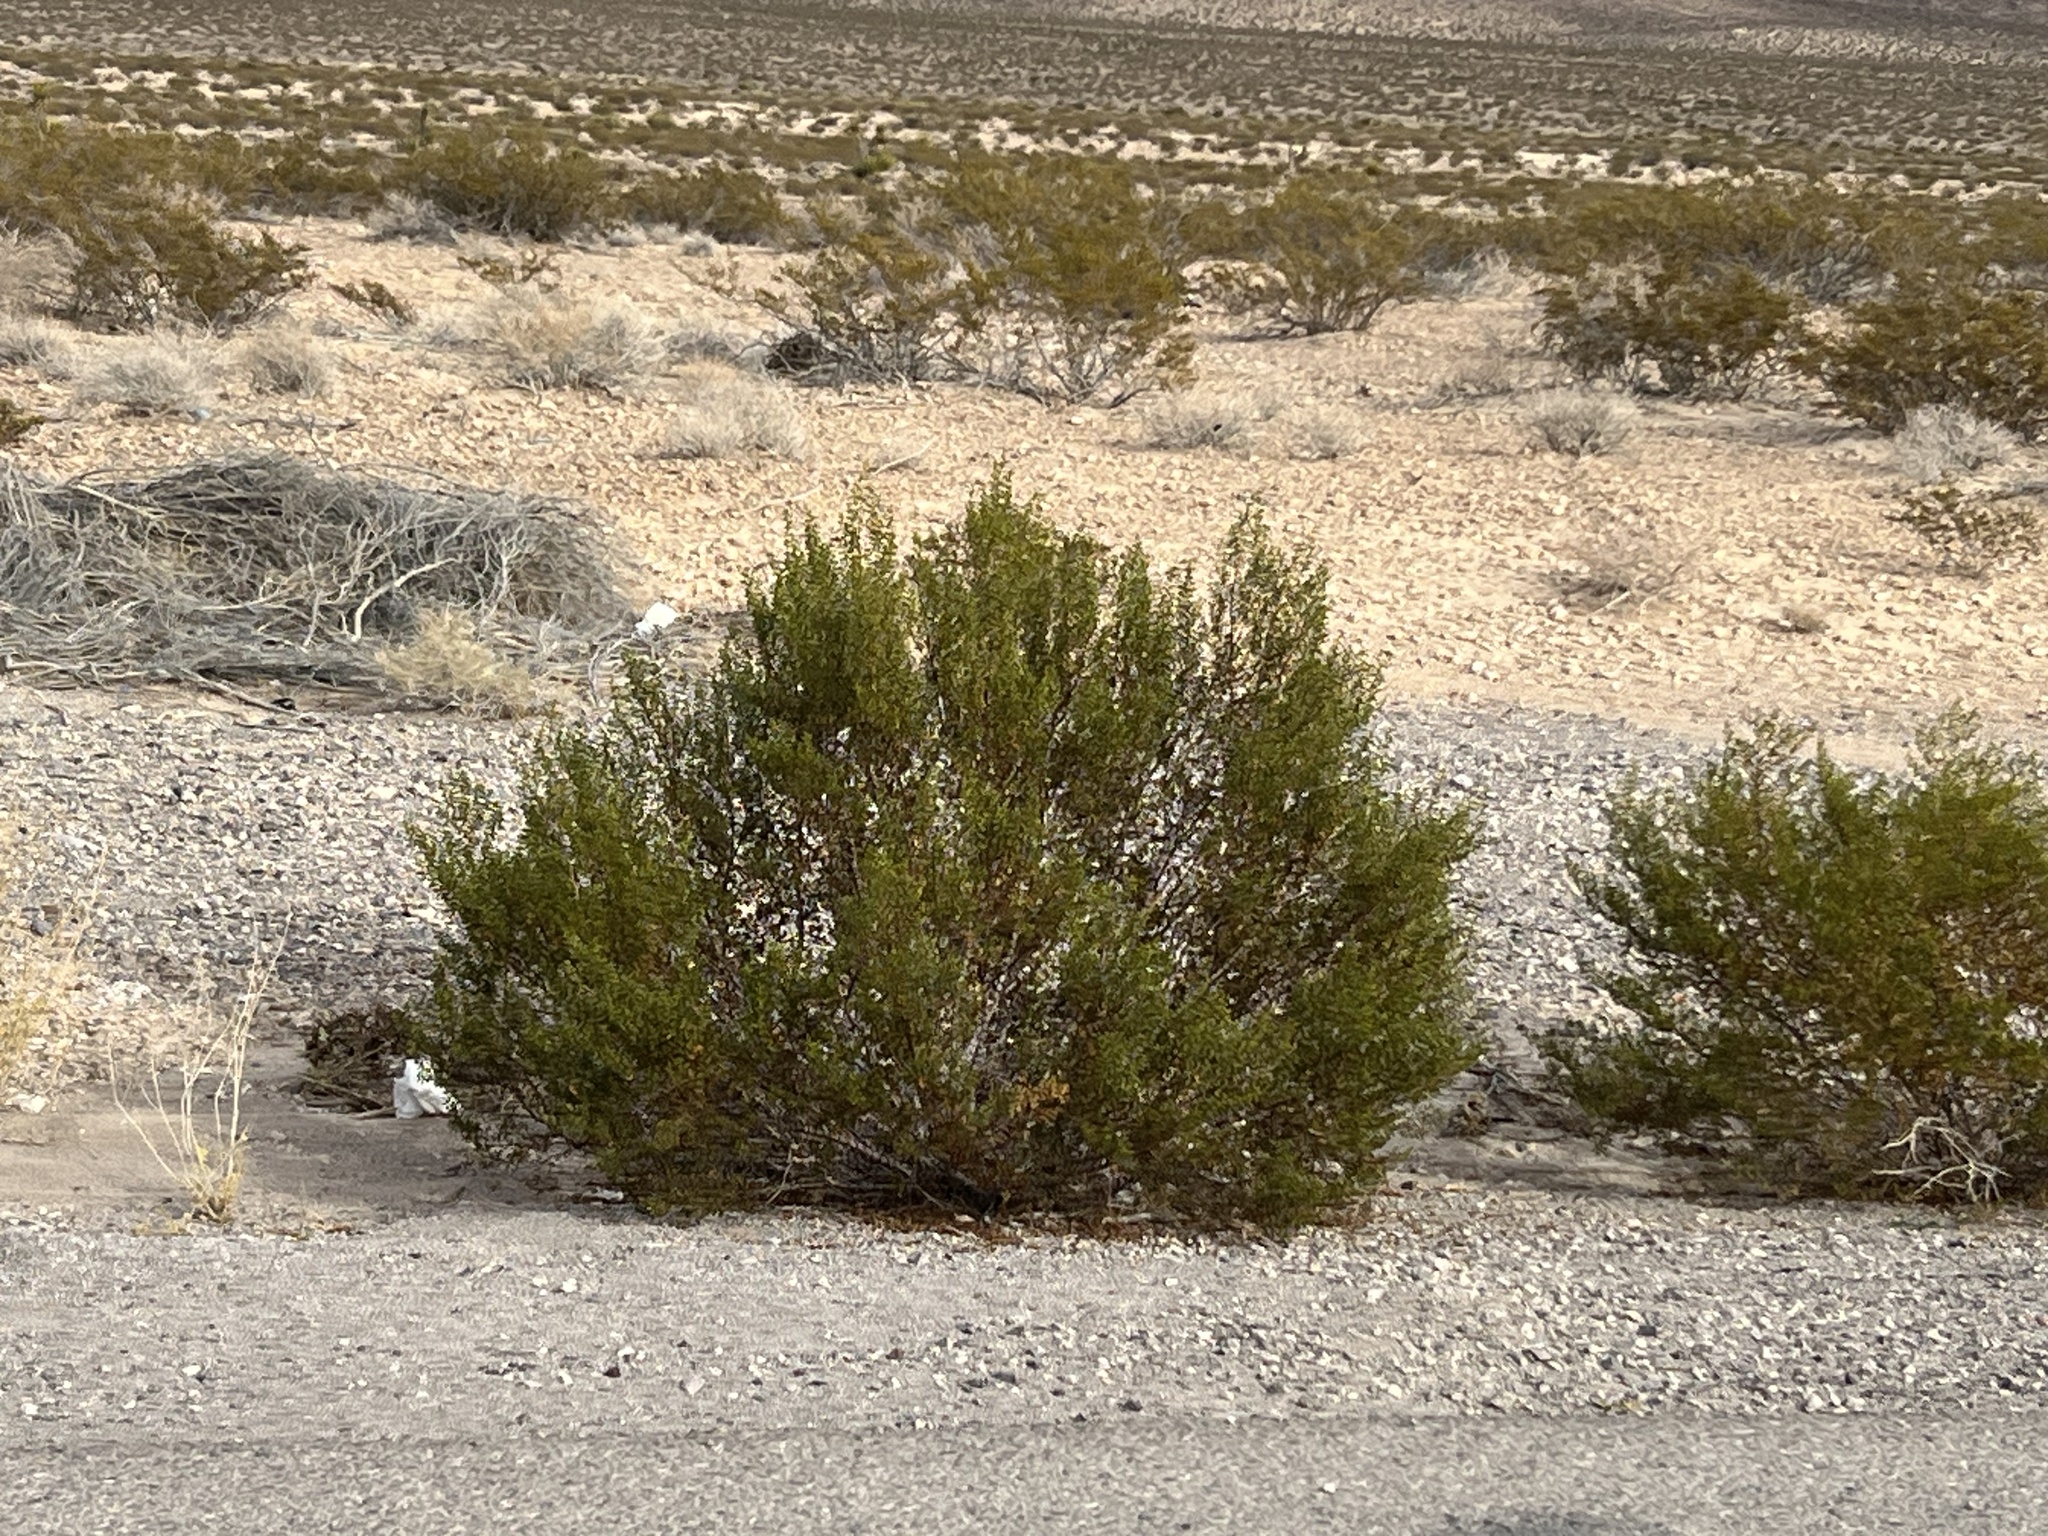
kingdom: Plantae
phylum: Tracheophyta
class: Magnoliopsida
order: Zygophyllales
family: Zygophyllaceae
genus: Larrea
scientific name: Larrea tridentata
